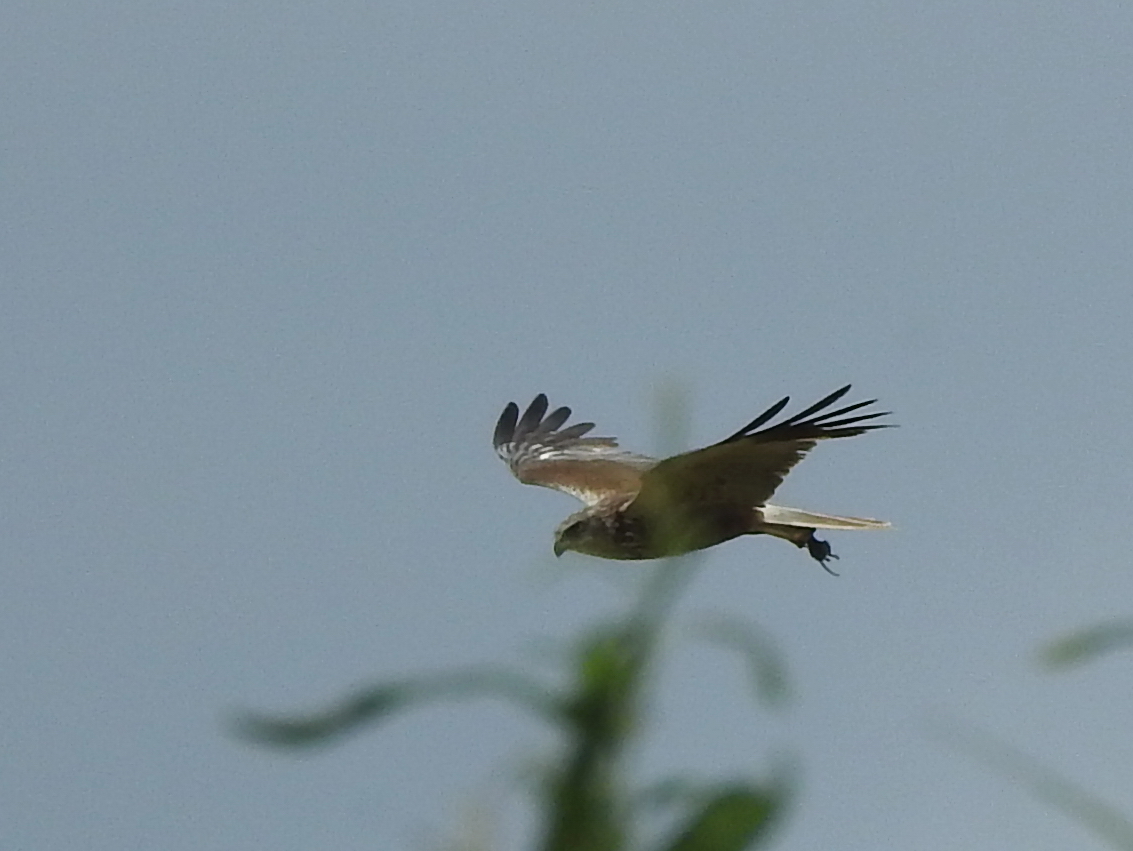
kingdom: Animalia
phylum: Chordata
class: Aves
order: Accipitriformes
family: Accipitridae
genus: Circus
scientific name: Circus aeruginosus
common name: Western marsh harrier
